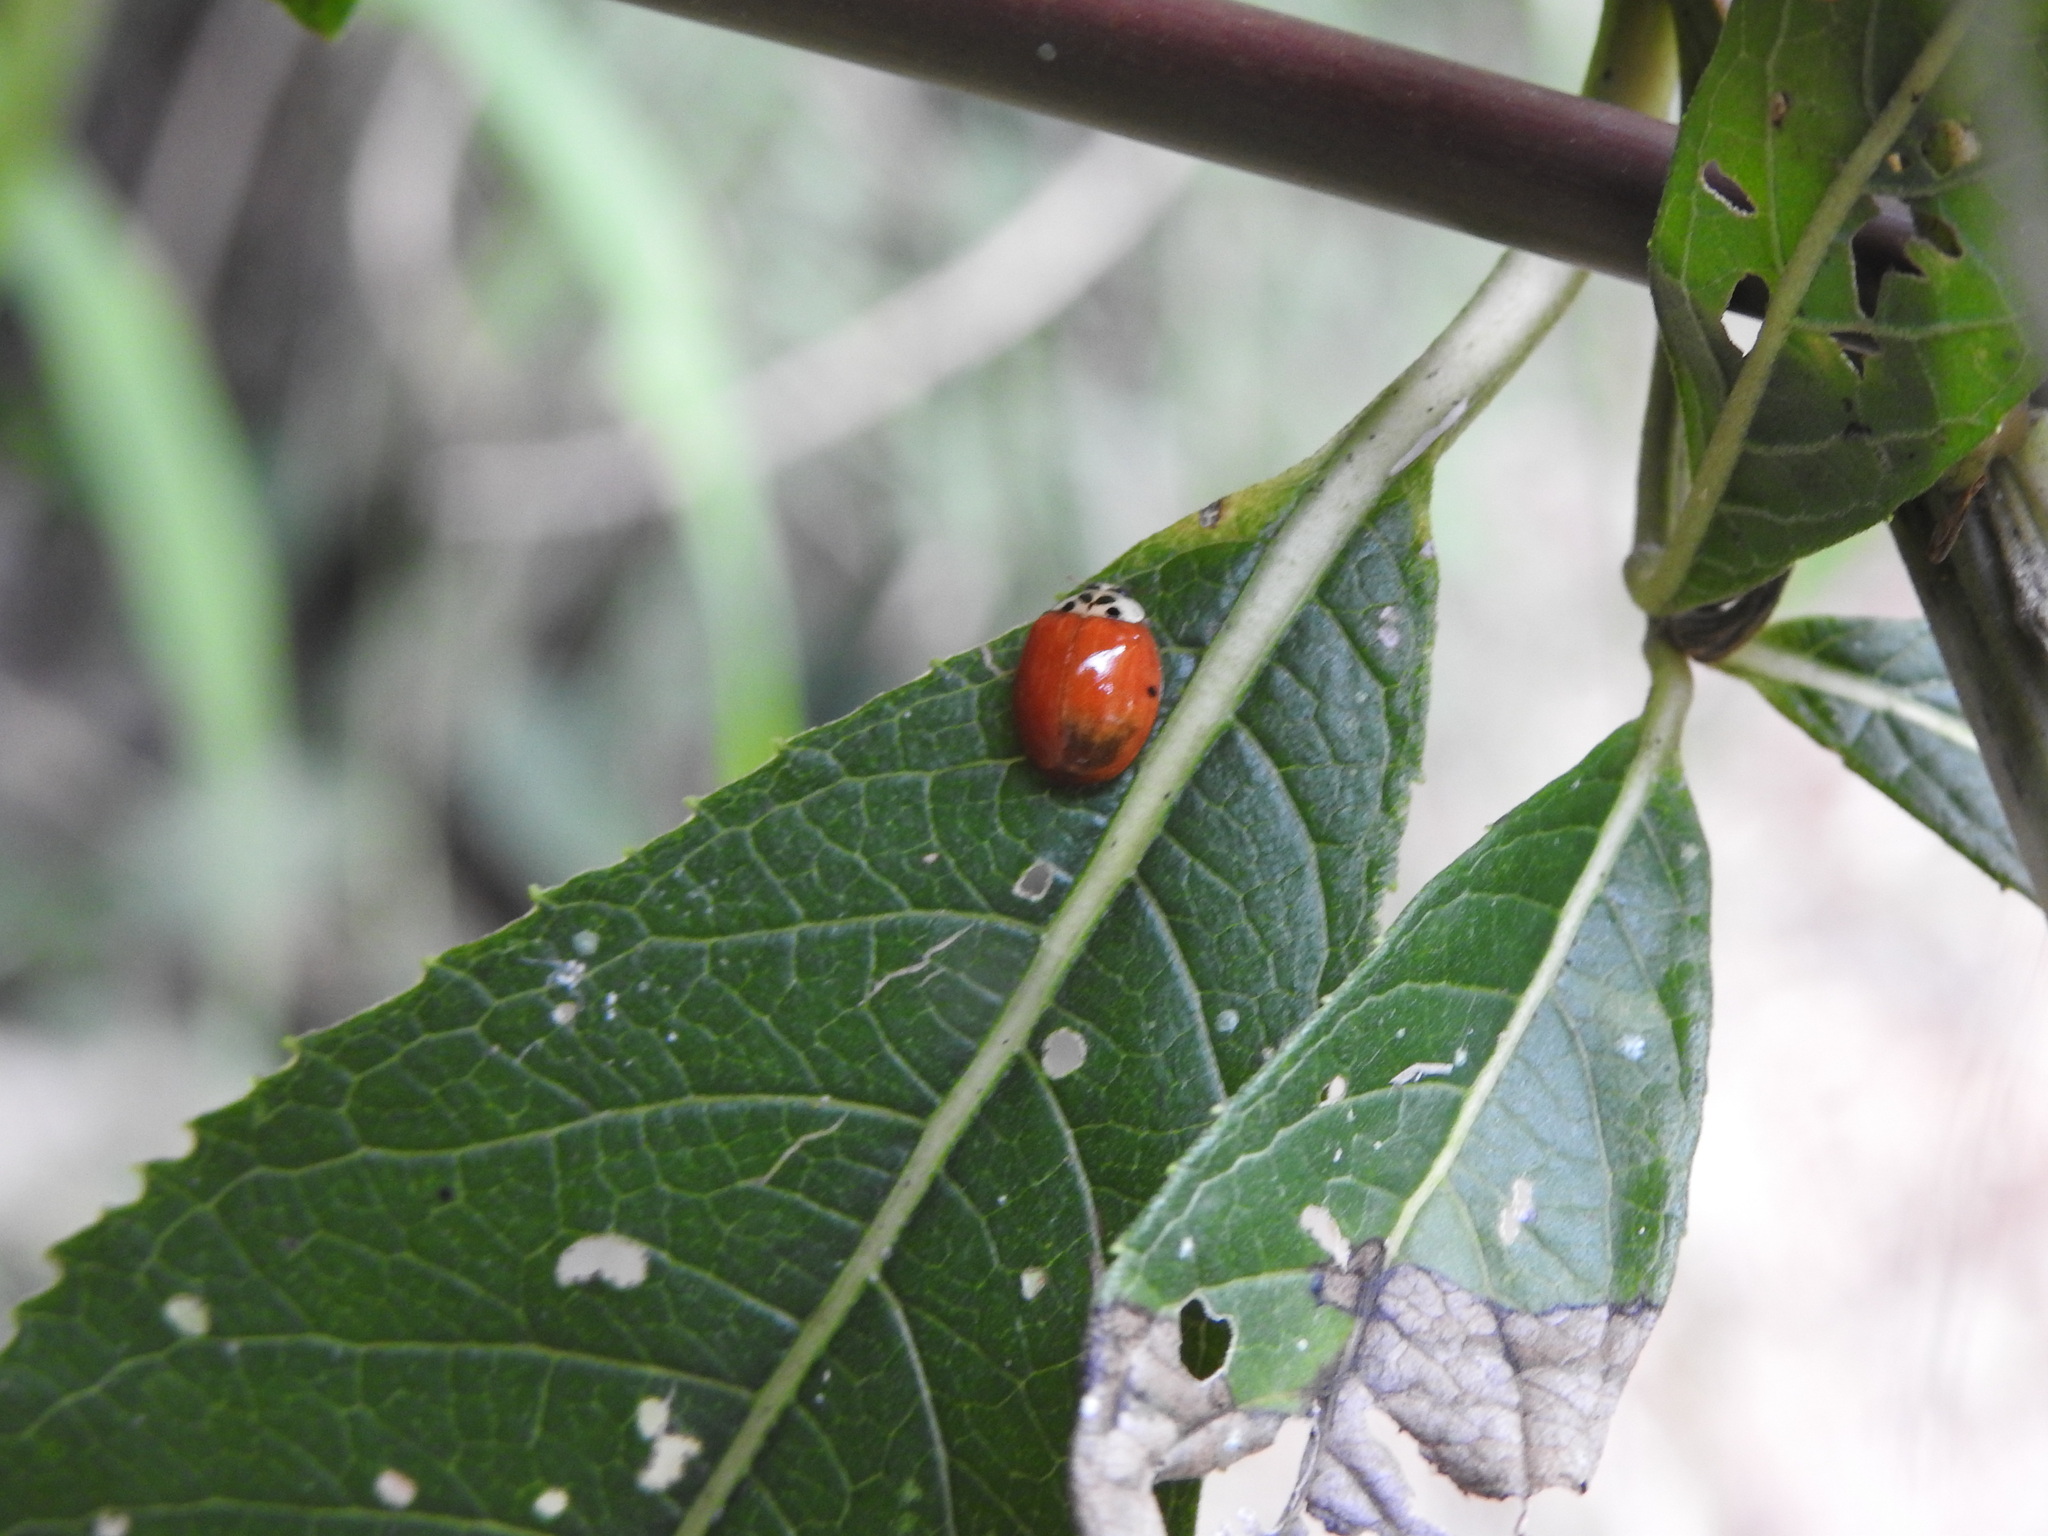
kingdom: Animalia
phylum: Arthropoda
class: Insecta
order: Coleoptera
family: Coccinellidae
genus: Harmonia
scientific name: Harmonia axyridis
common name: Harlequin ladybird
